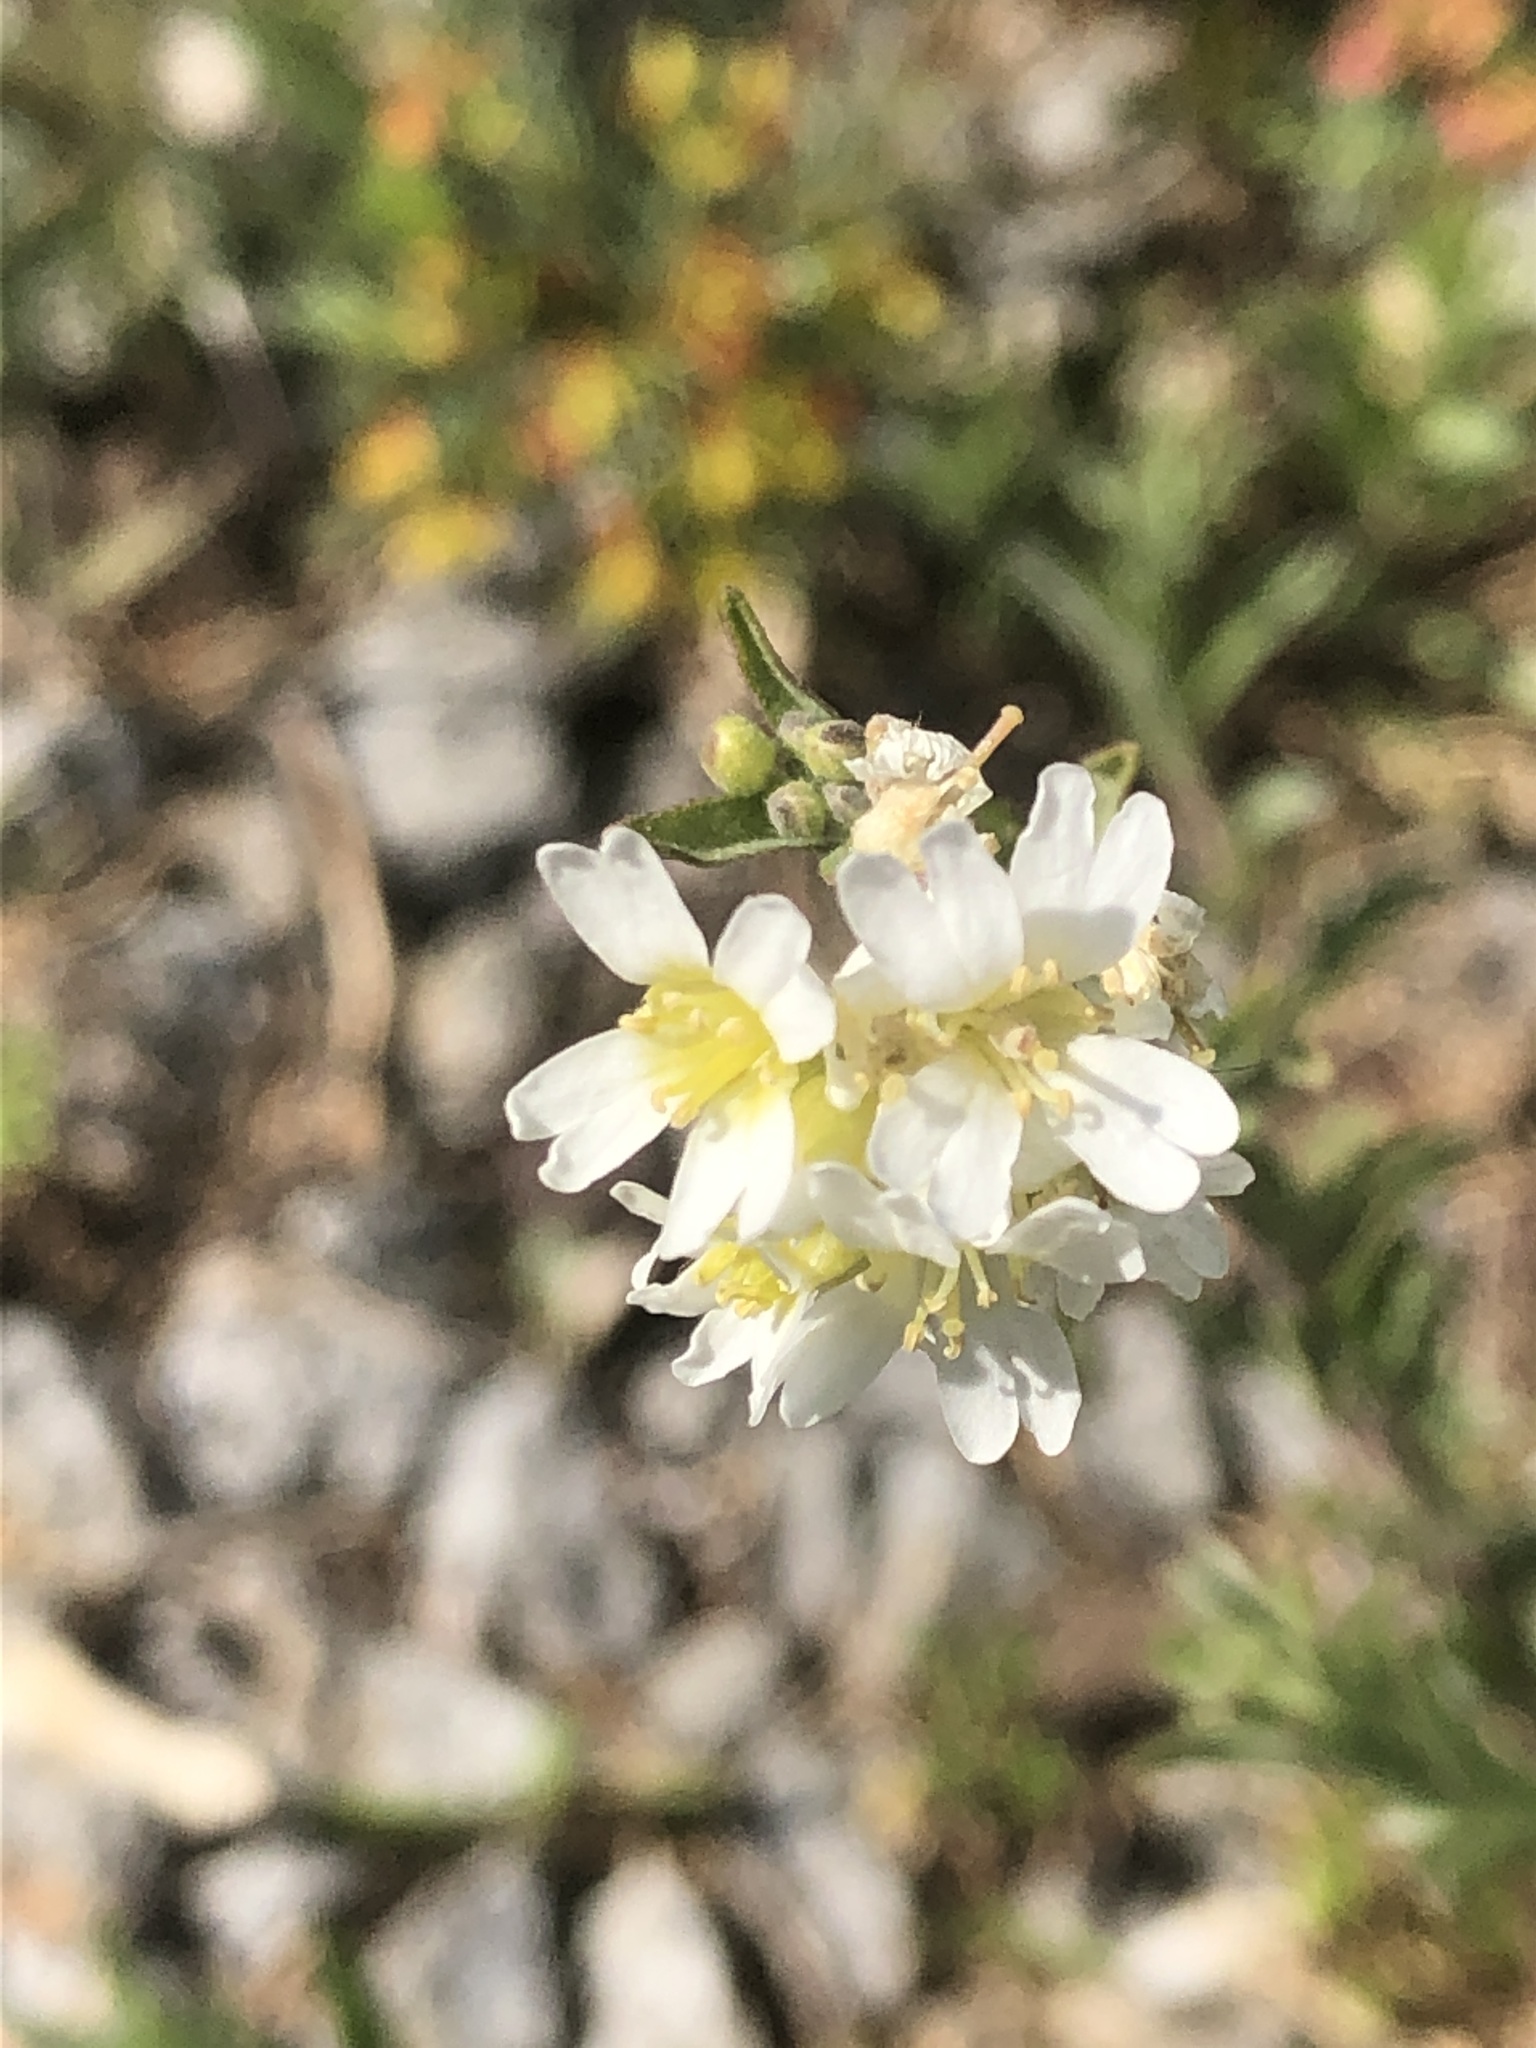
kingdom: Plantae
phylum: Tracheophyta
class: Magnoliopsida
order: Brassicales
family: Brassicaceae
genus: Berteroa
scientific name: Berteroa incana
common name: Hoary alison
